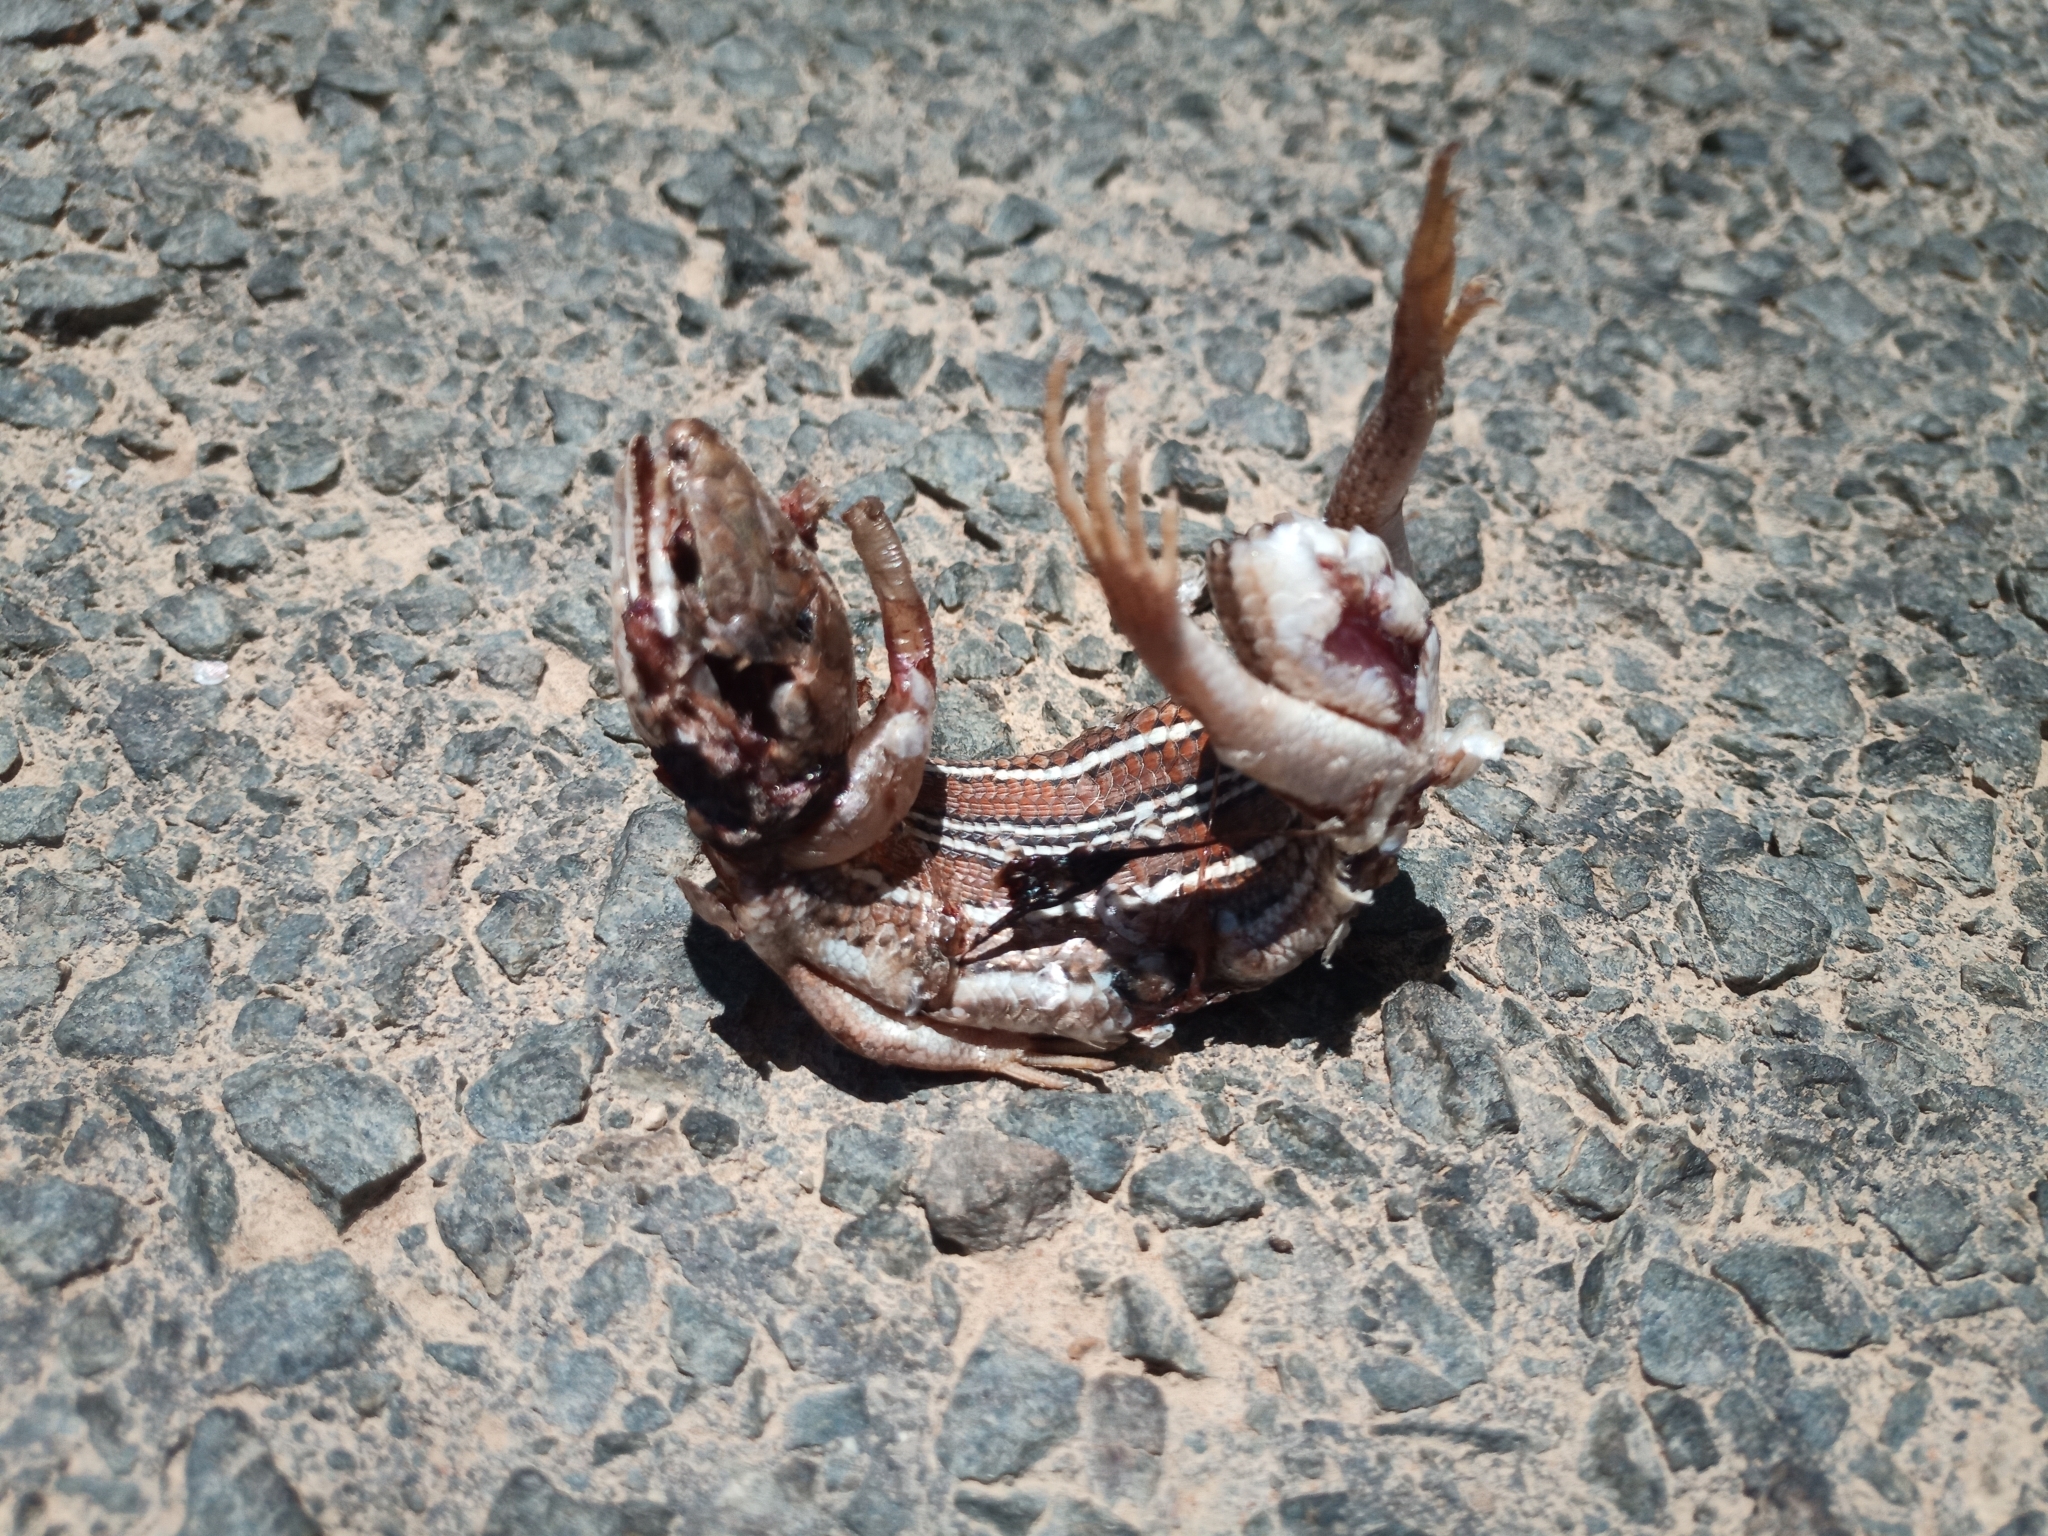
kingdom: Animalia
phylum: Chordata
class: Squamata
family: Scincidae
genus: Trachylepis
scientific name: Trachylepis occidentalis
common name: Western three-striped skink
